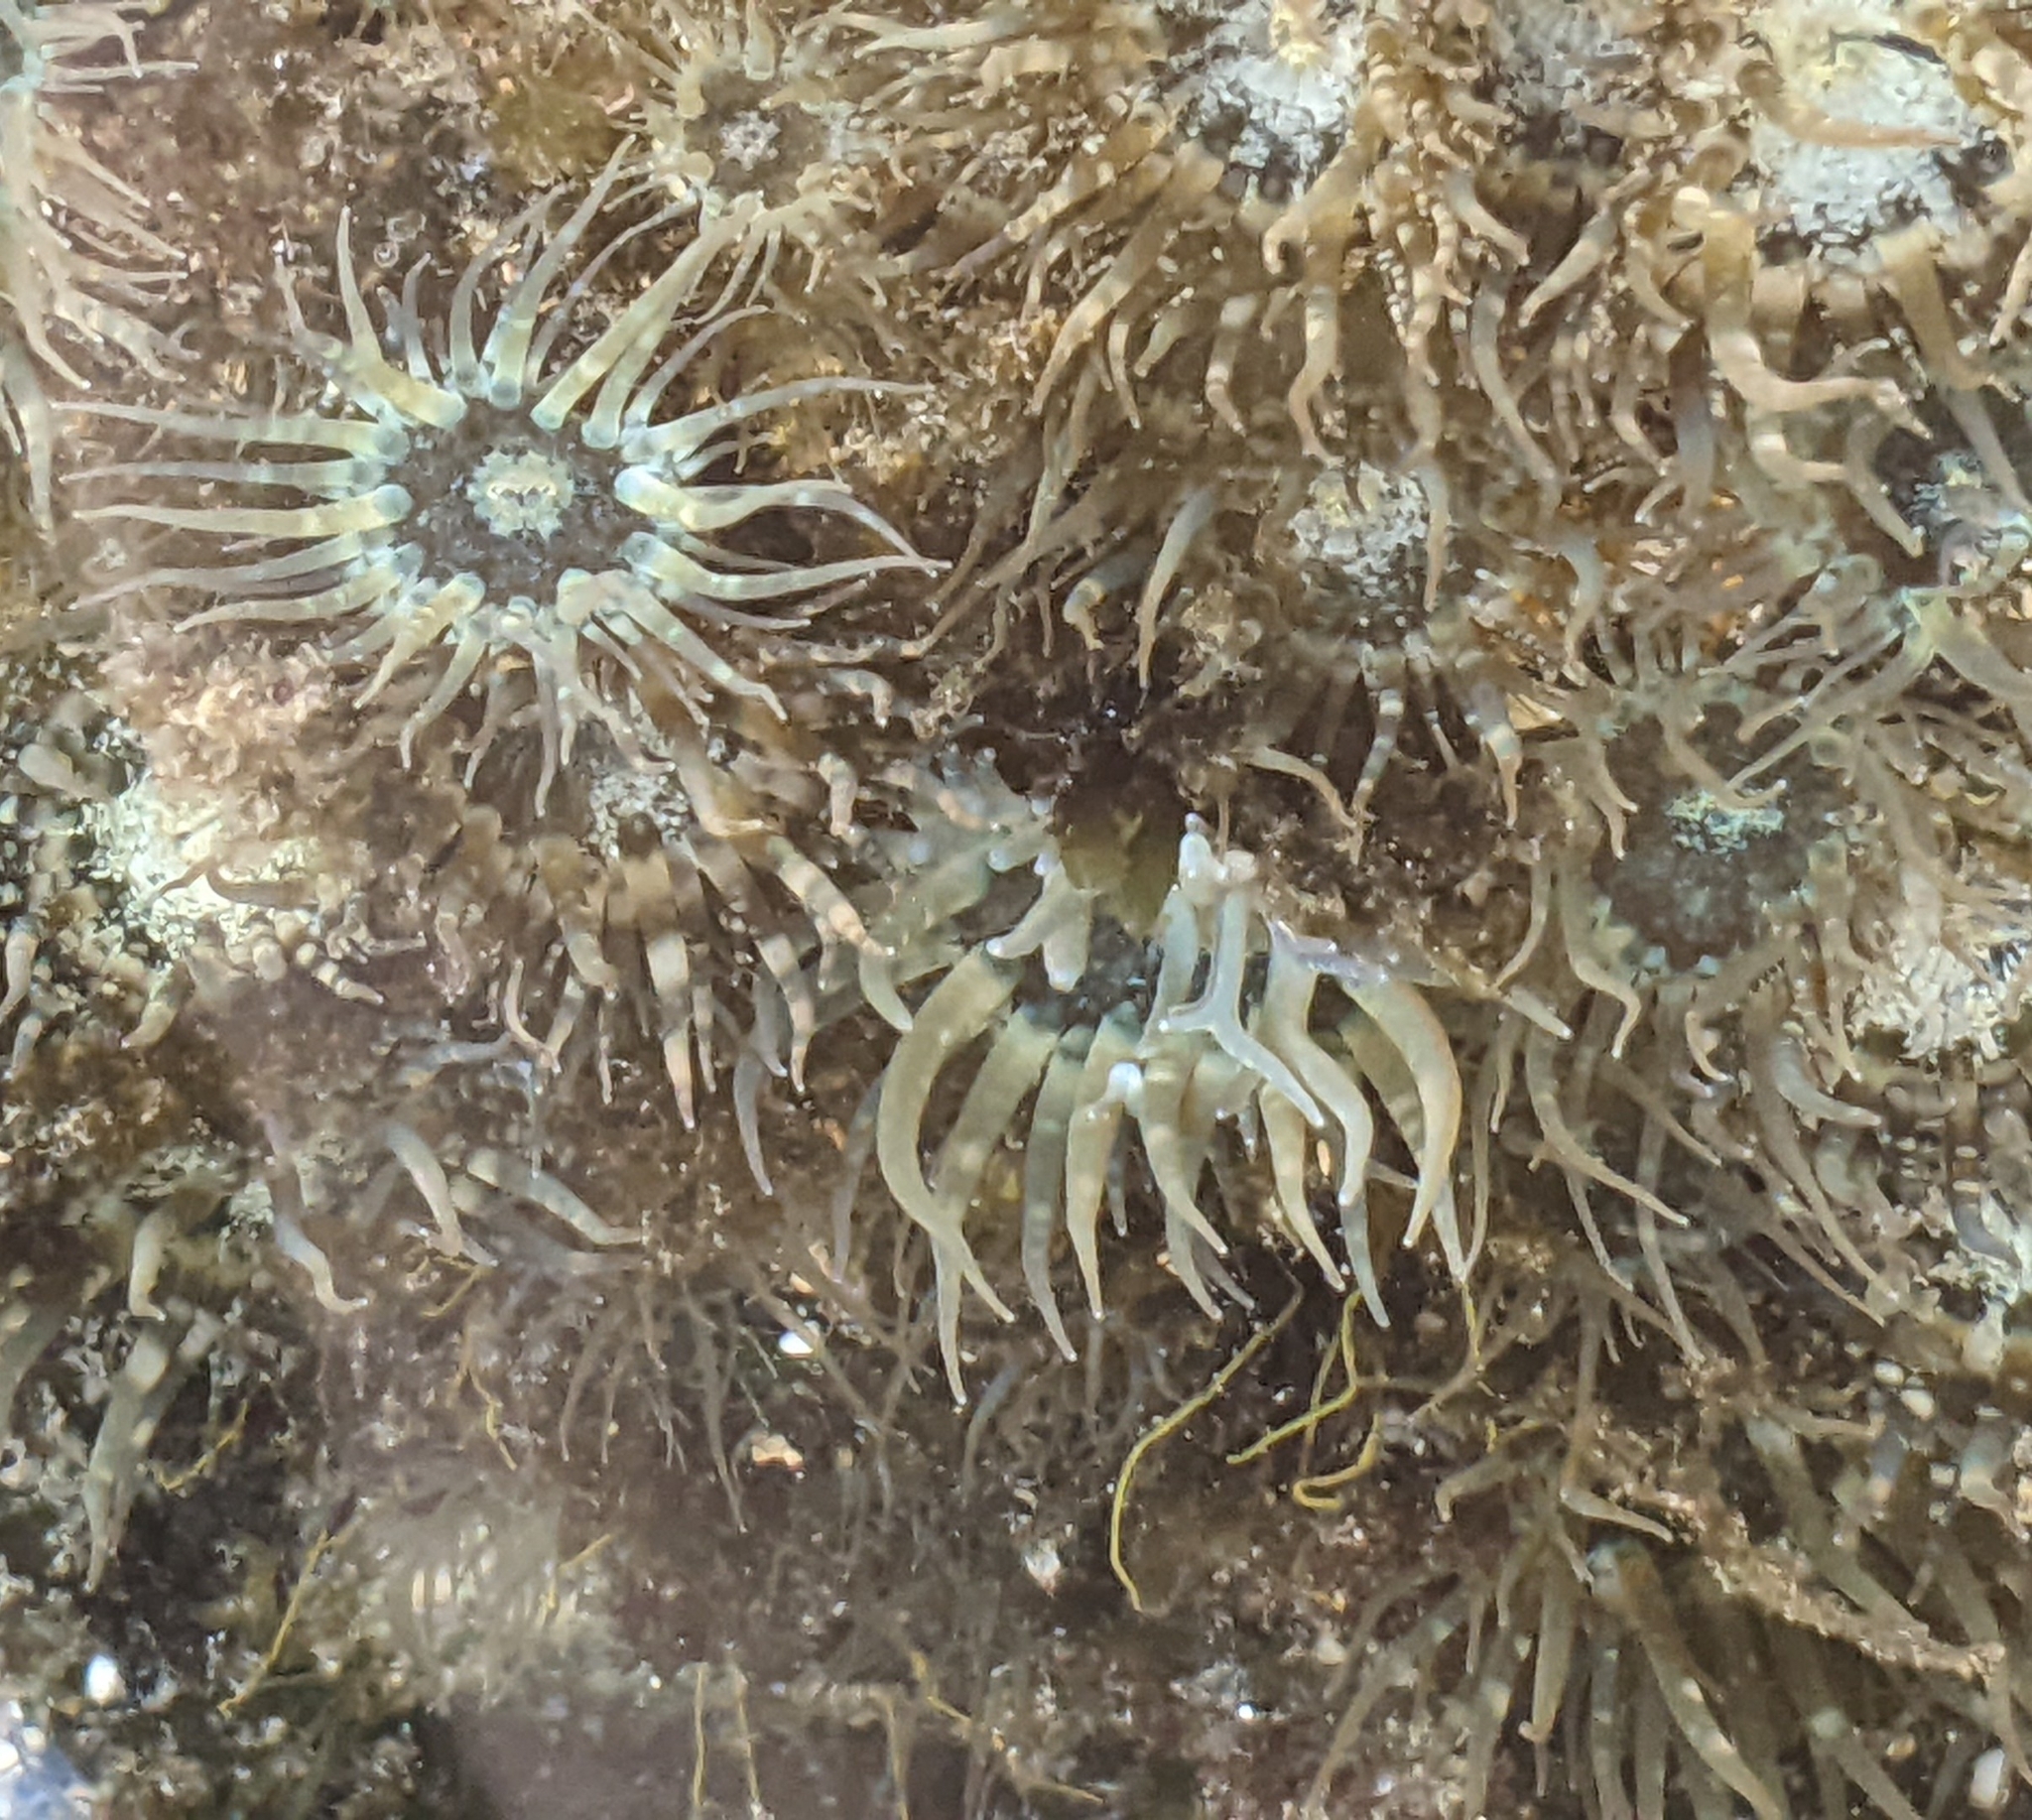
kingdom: Animalia
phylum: Cnidaria
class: Anthozoa
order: Actiniaria
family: Aiptasiidae
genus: Exaiptasia
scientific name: Exaiptasia diaphana
